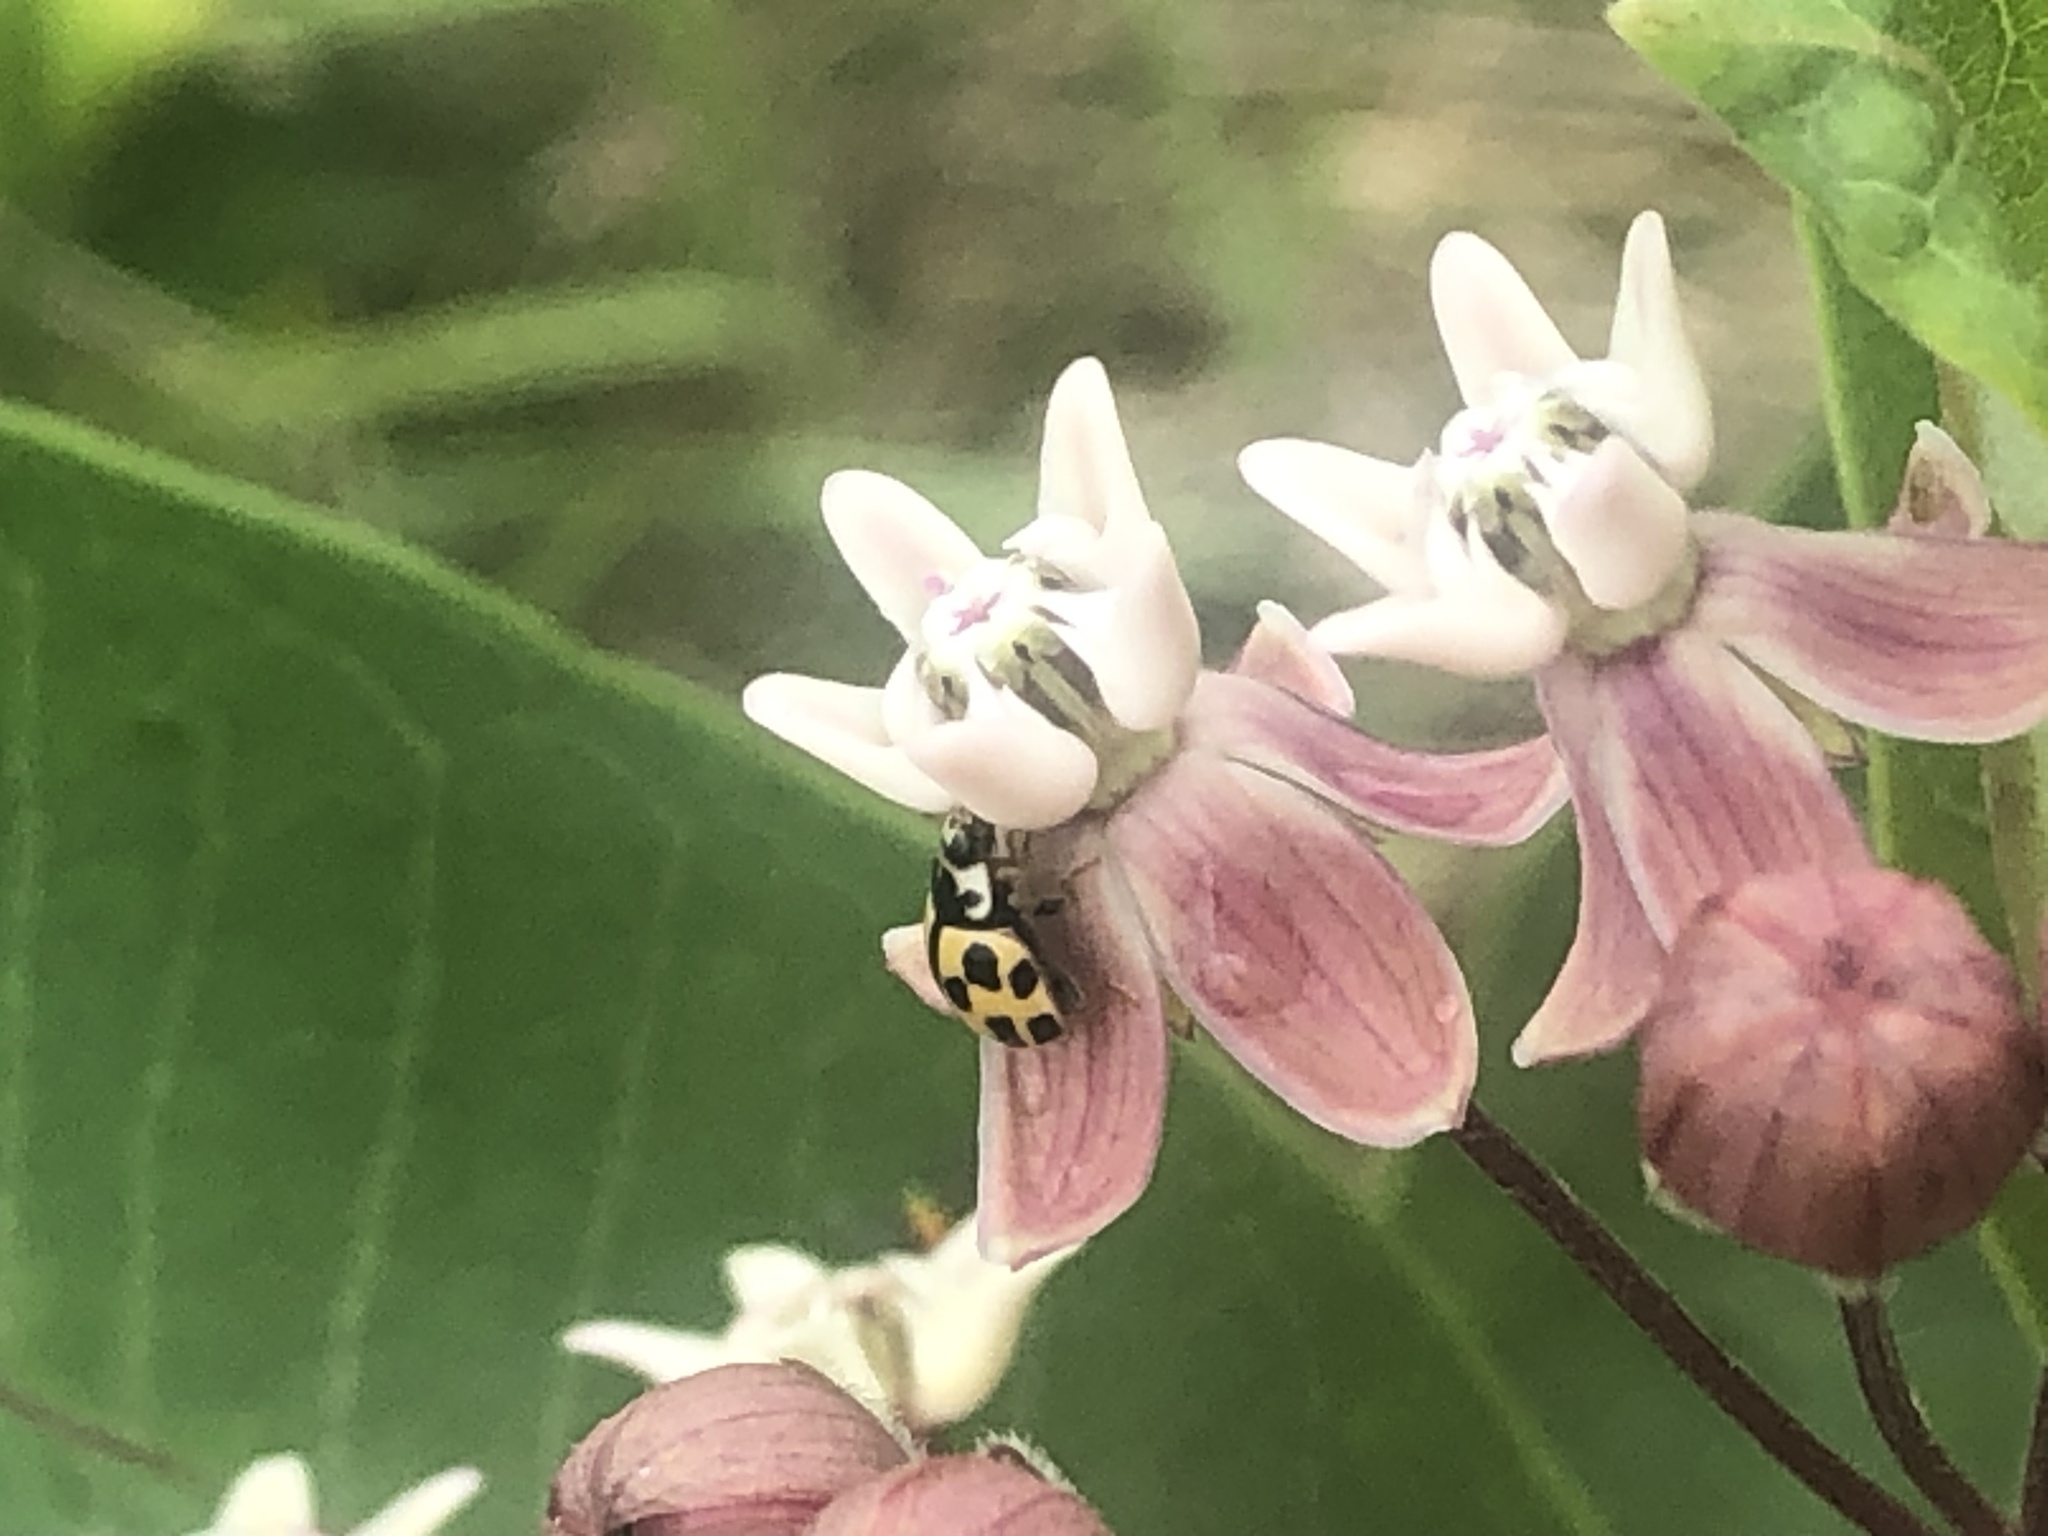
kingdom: Animalia
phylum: Arthropoda
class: Insecta
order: Coleoptera
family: Coccinellidae
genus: Propylaea
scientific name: Propylaea quatuordecimpunctata
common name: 14-spotted ladybird beetle
